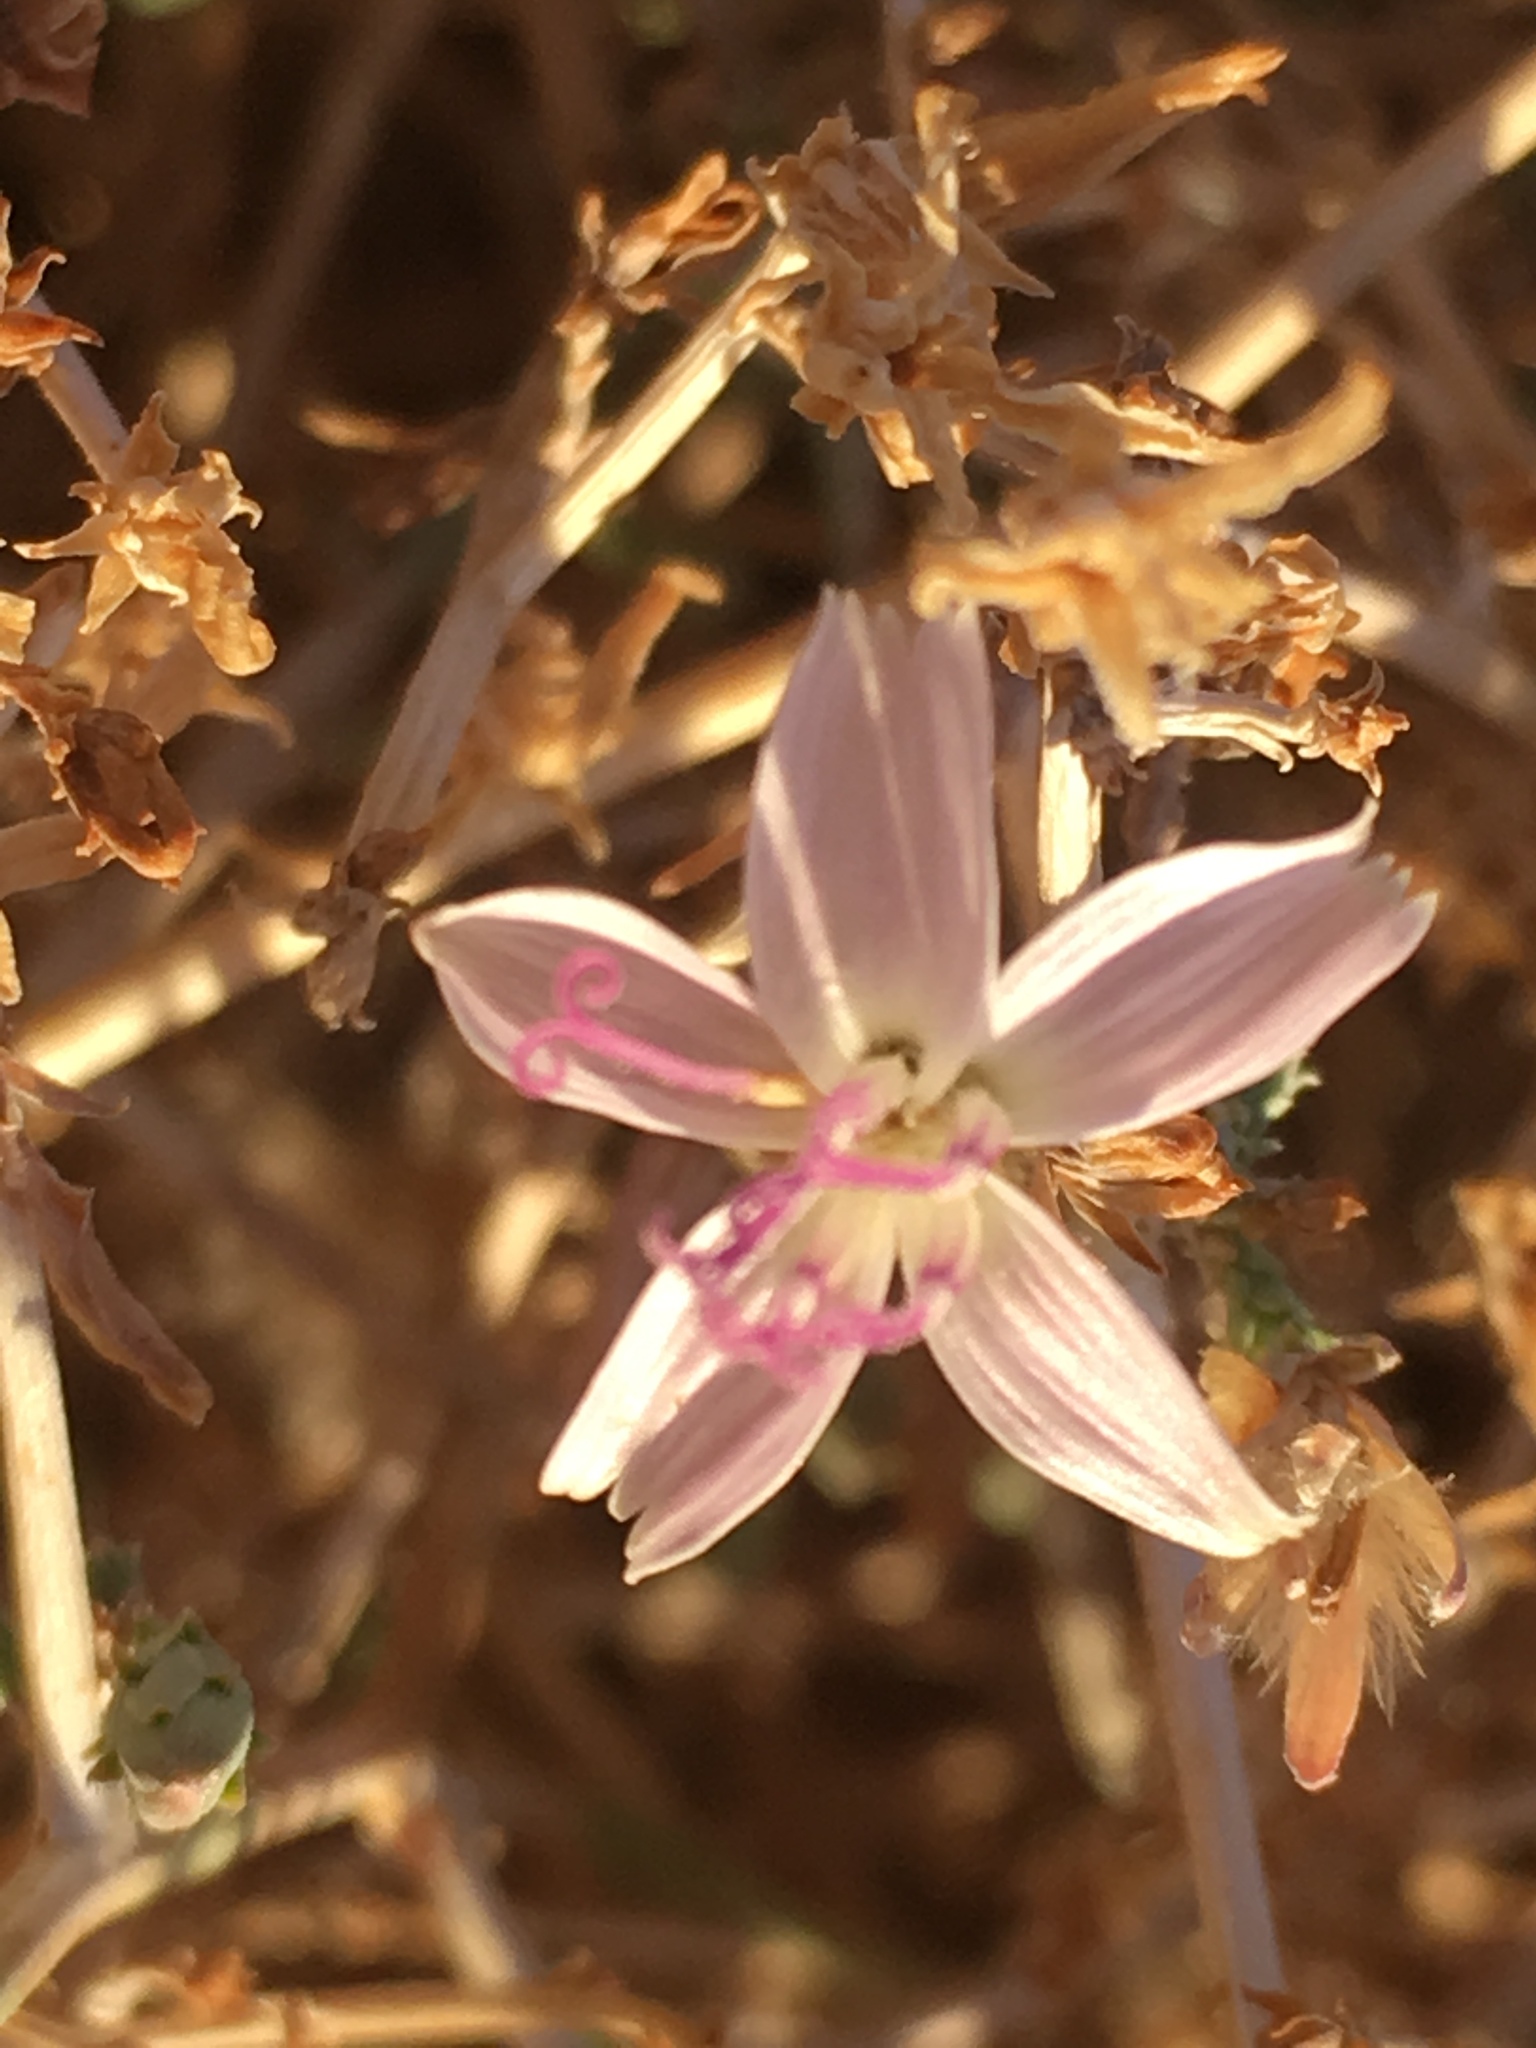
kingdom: Plantae
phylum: Tracheophyta
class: Magnoliopsida
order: Asterales
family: Asteraceae
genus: Stephanomeria
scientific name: Stephanomeria pauciflora
